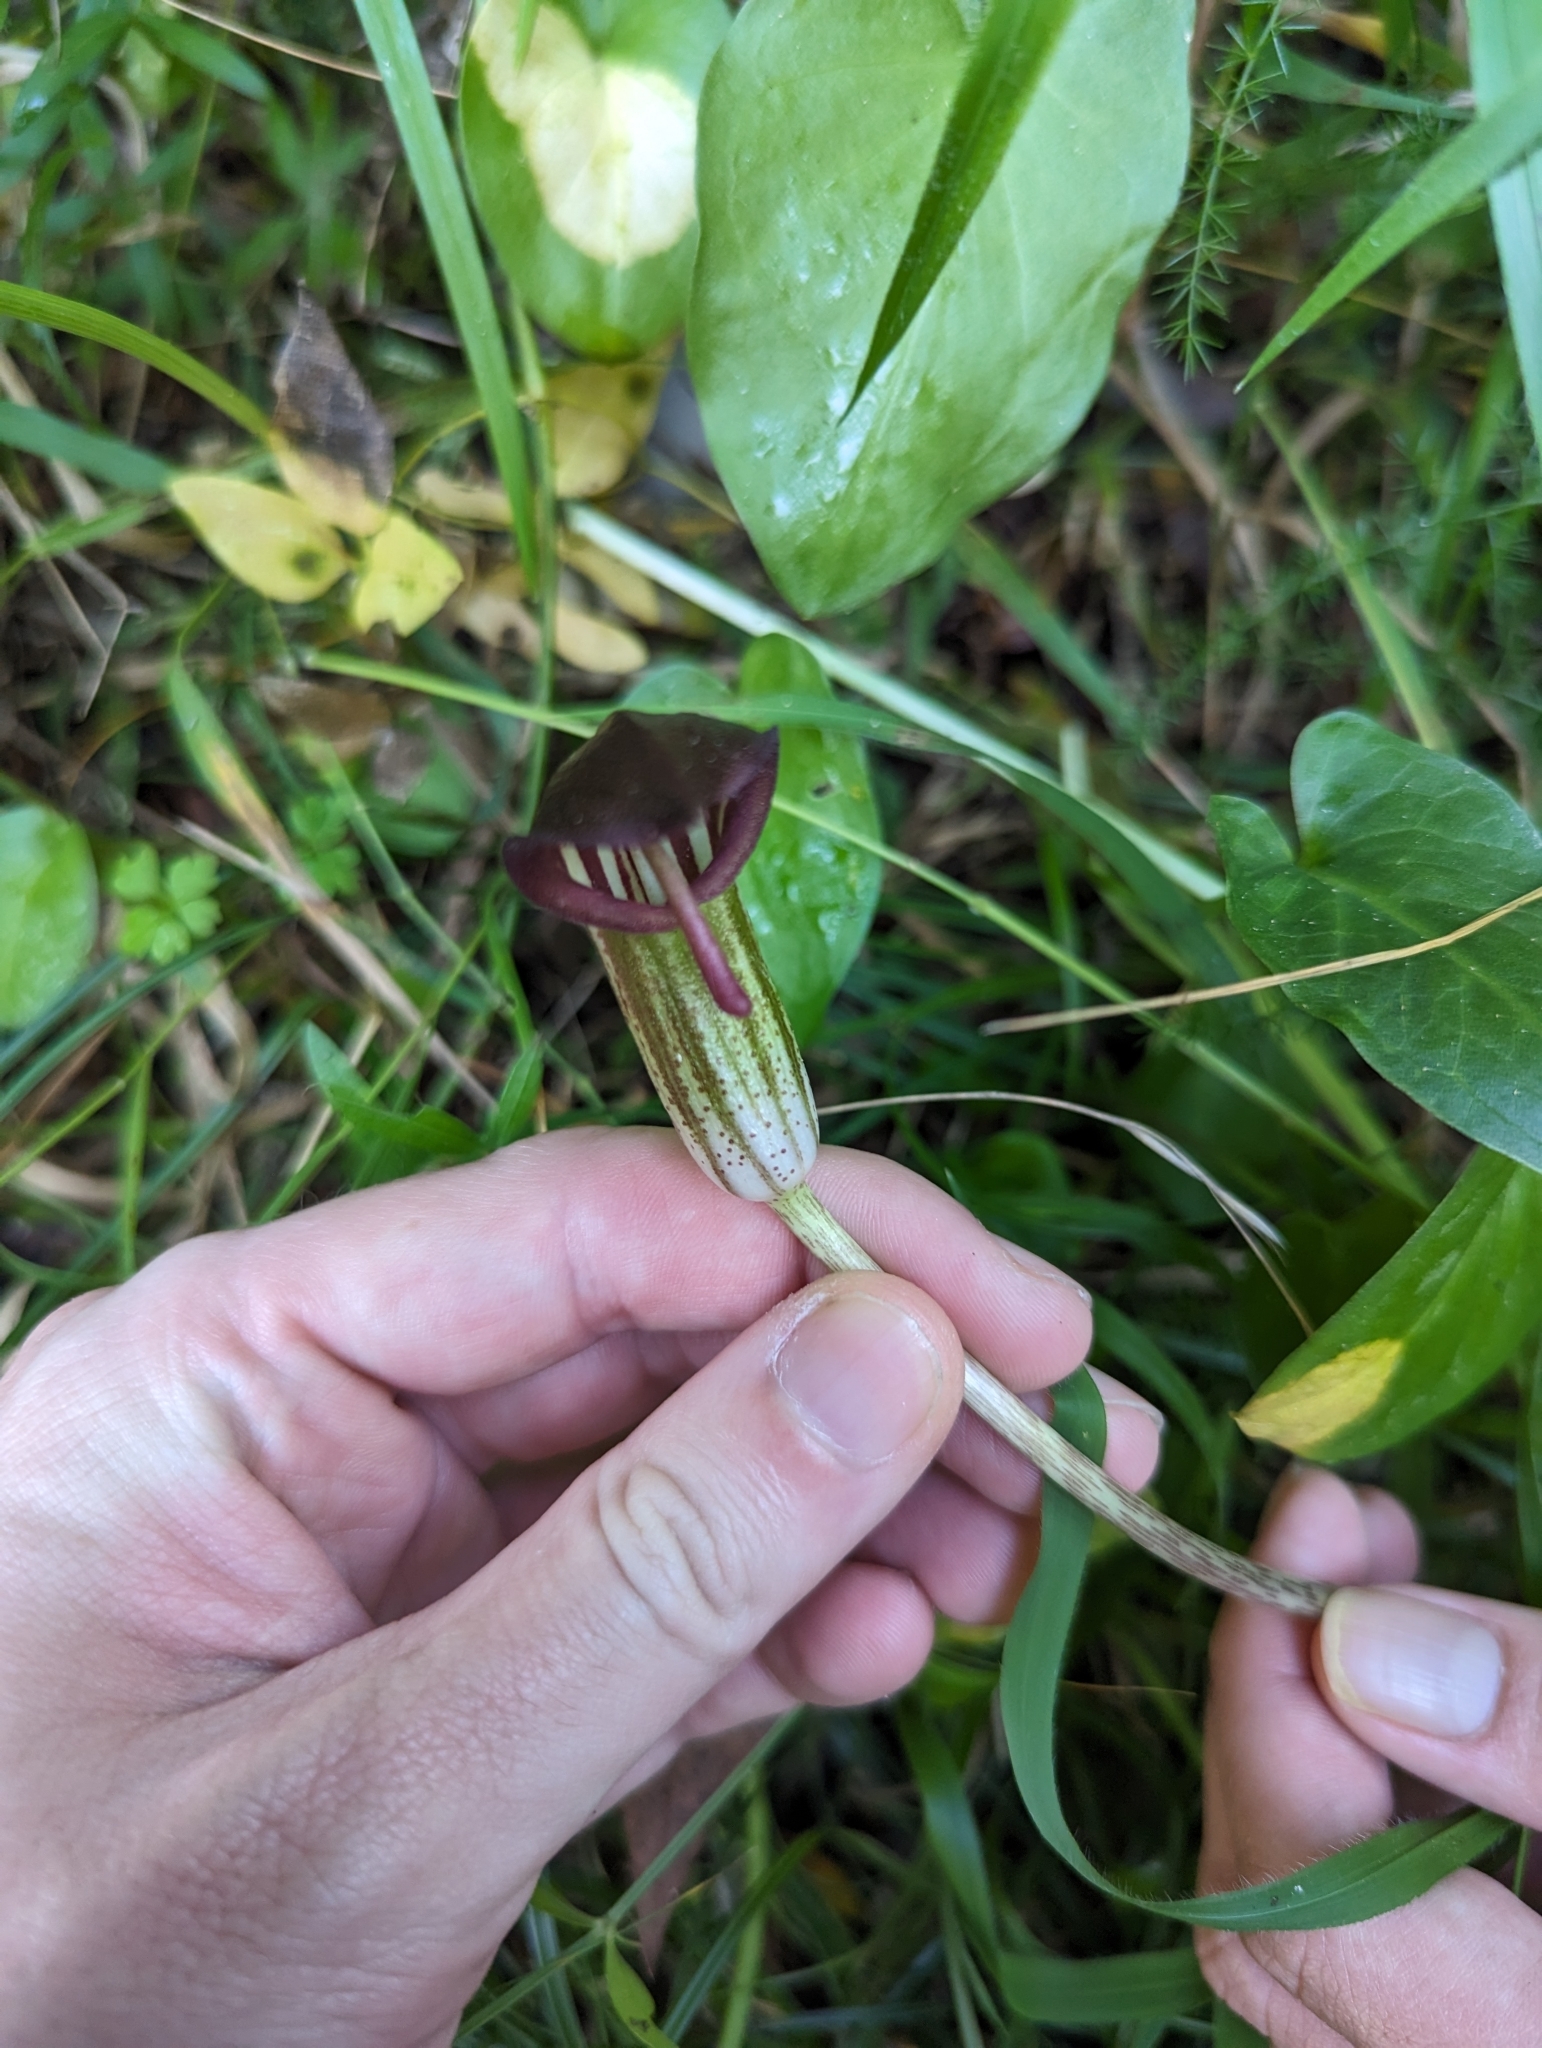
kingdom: Plantae
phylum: Tracheophyta
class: Liliopsida
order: Alismatales
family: Araceae
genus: Arisarum
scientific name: Arisarum vulgare
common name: Common arisarum
